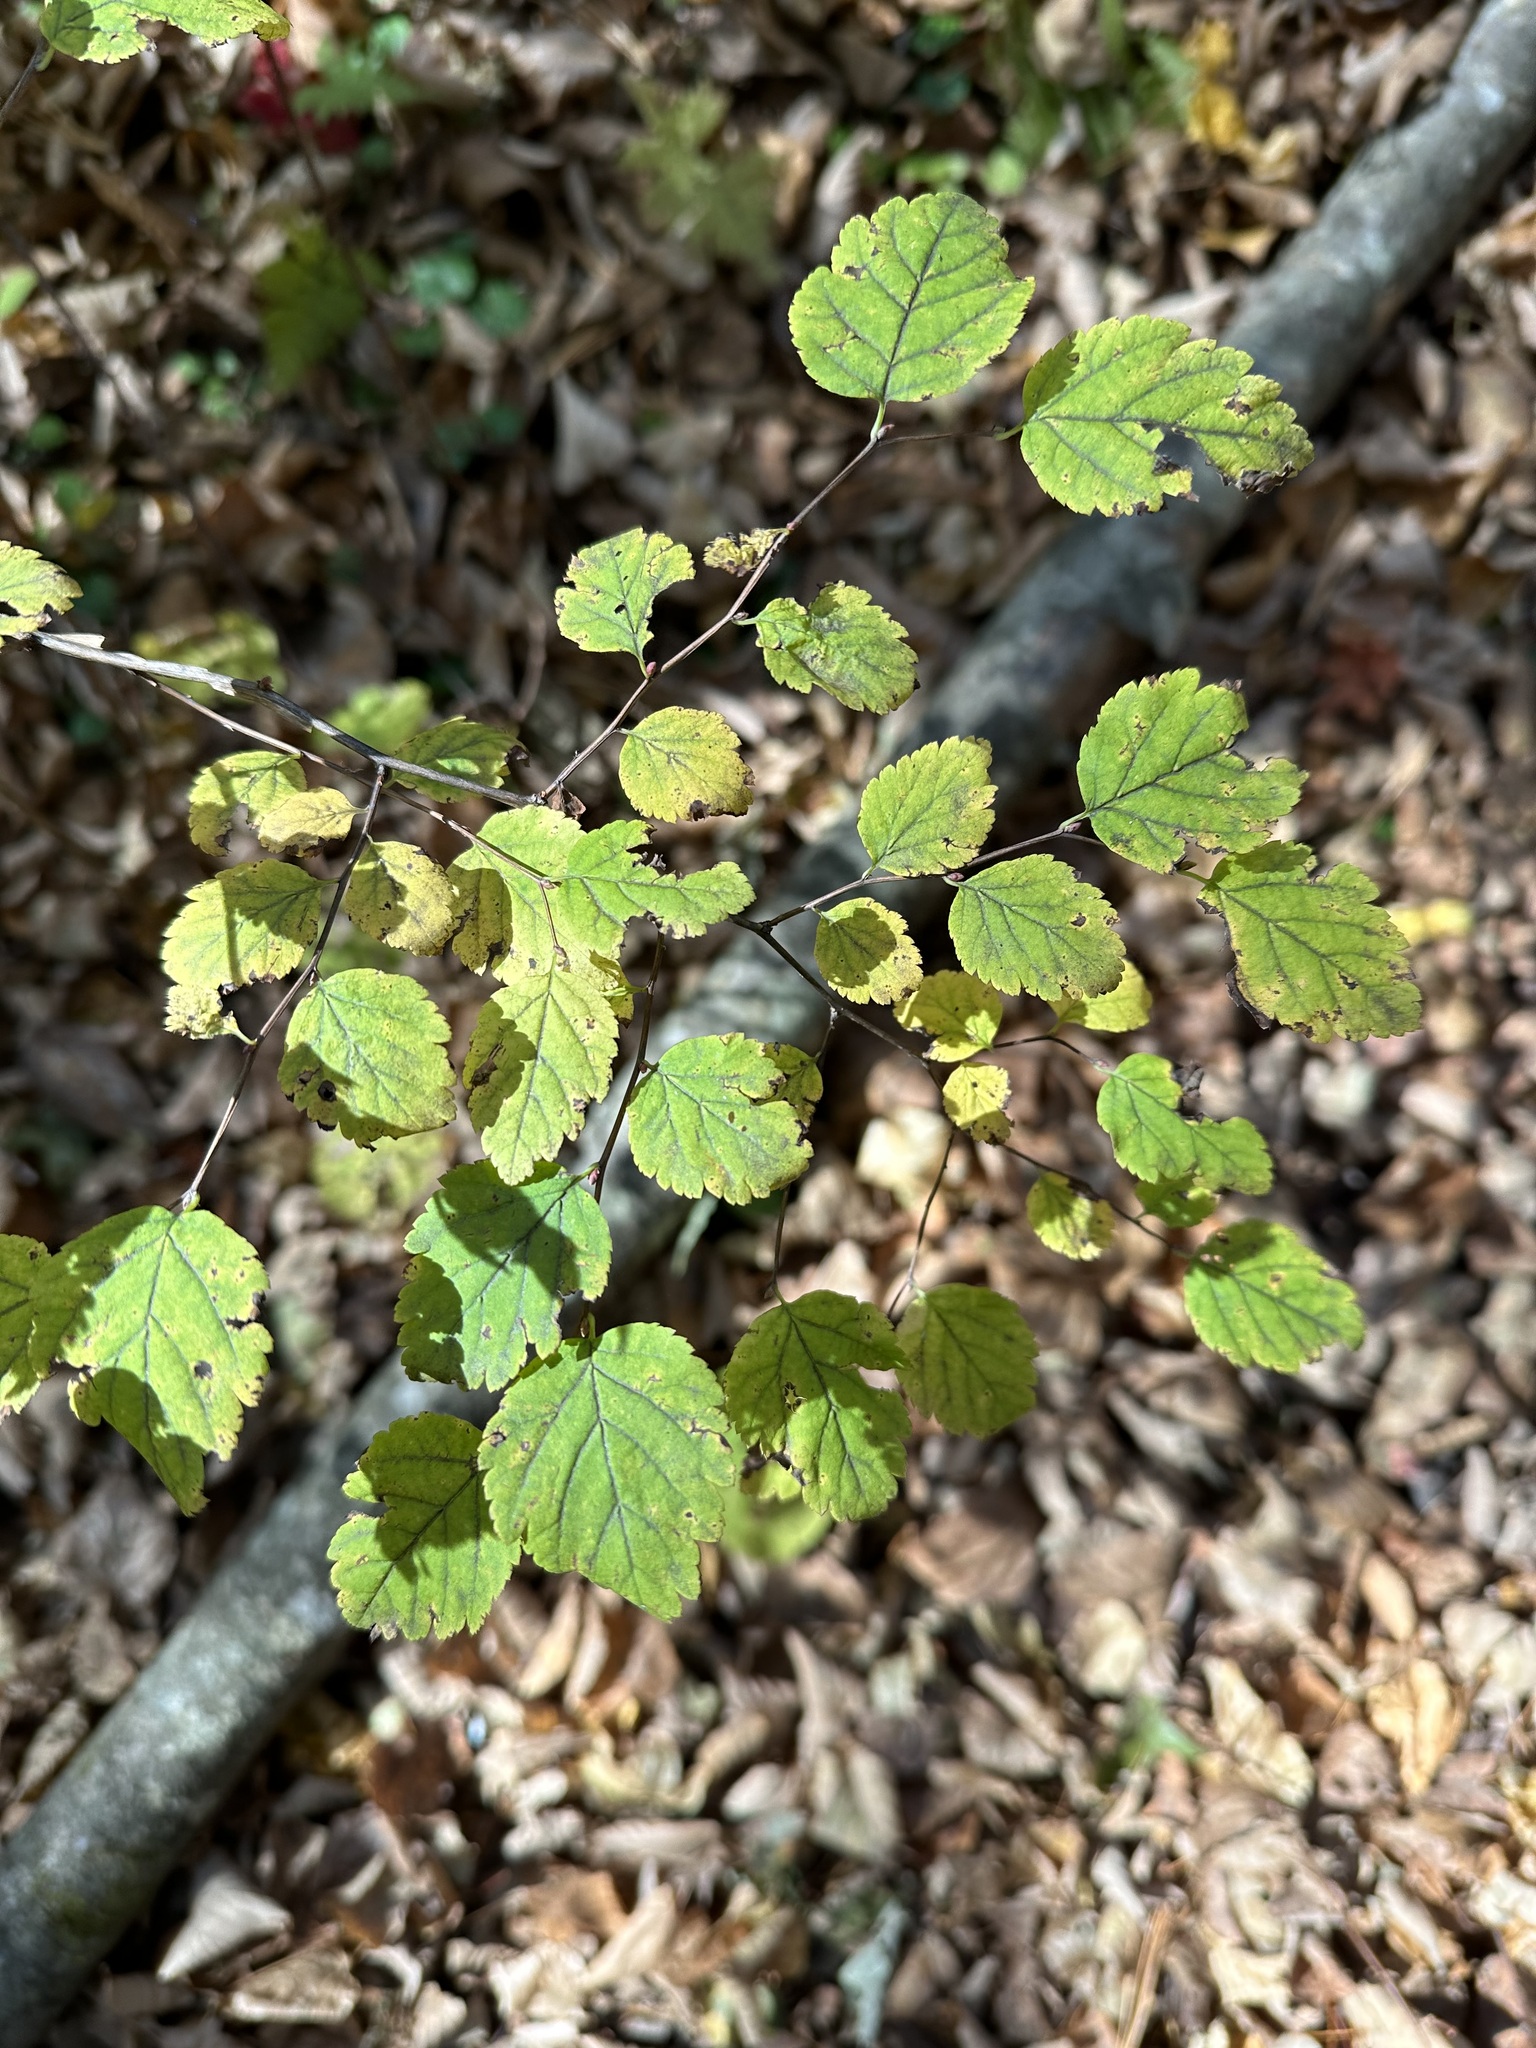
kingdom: Plantae
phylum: Tracheophyta
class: Magnoliopsida
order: Rosales
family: Rosaceae
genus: Spiraea
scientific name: Spiraea chamaedryfolia
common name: Elm-leaved spiraea
